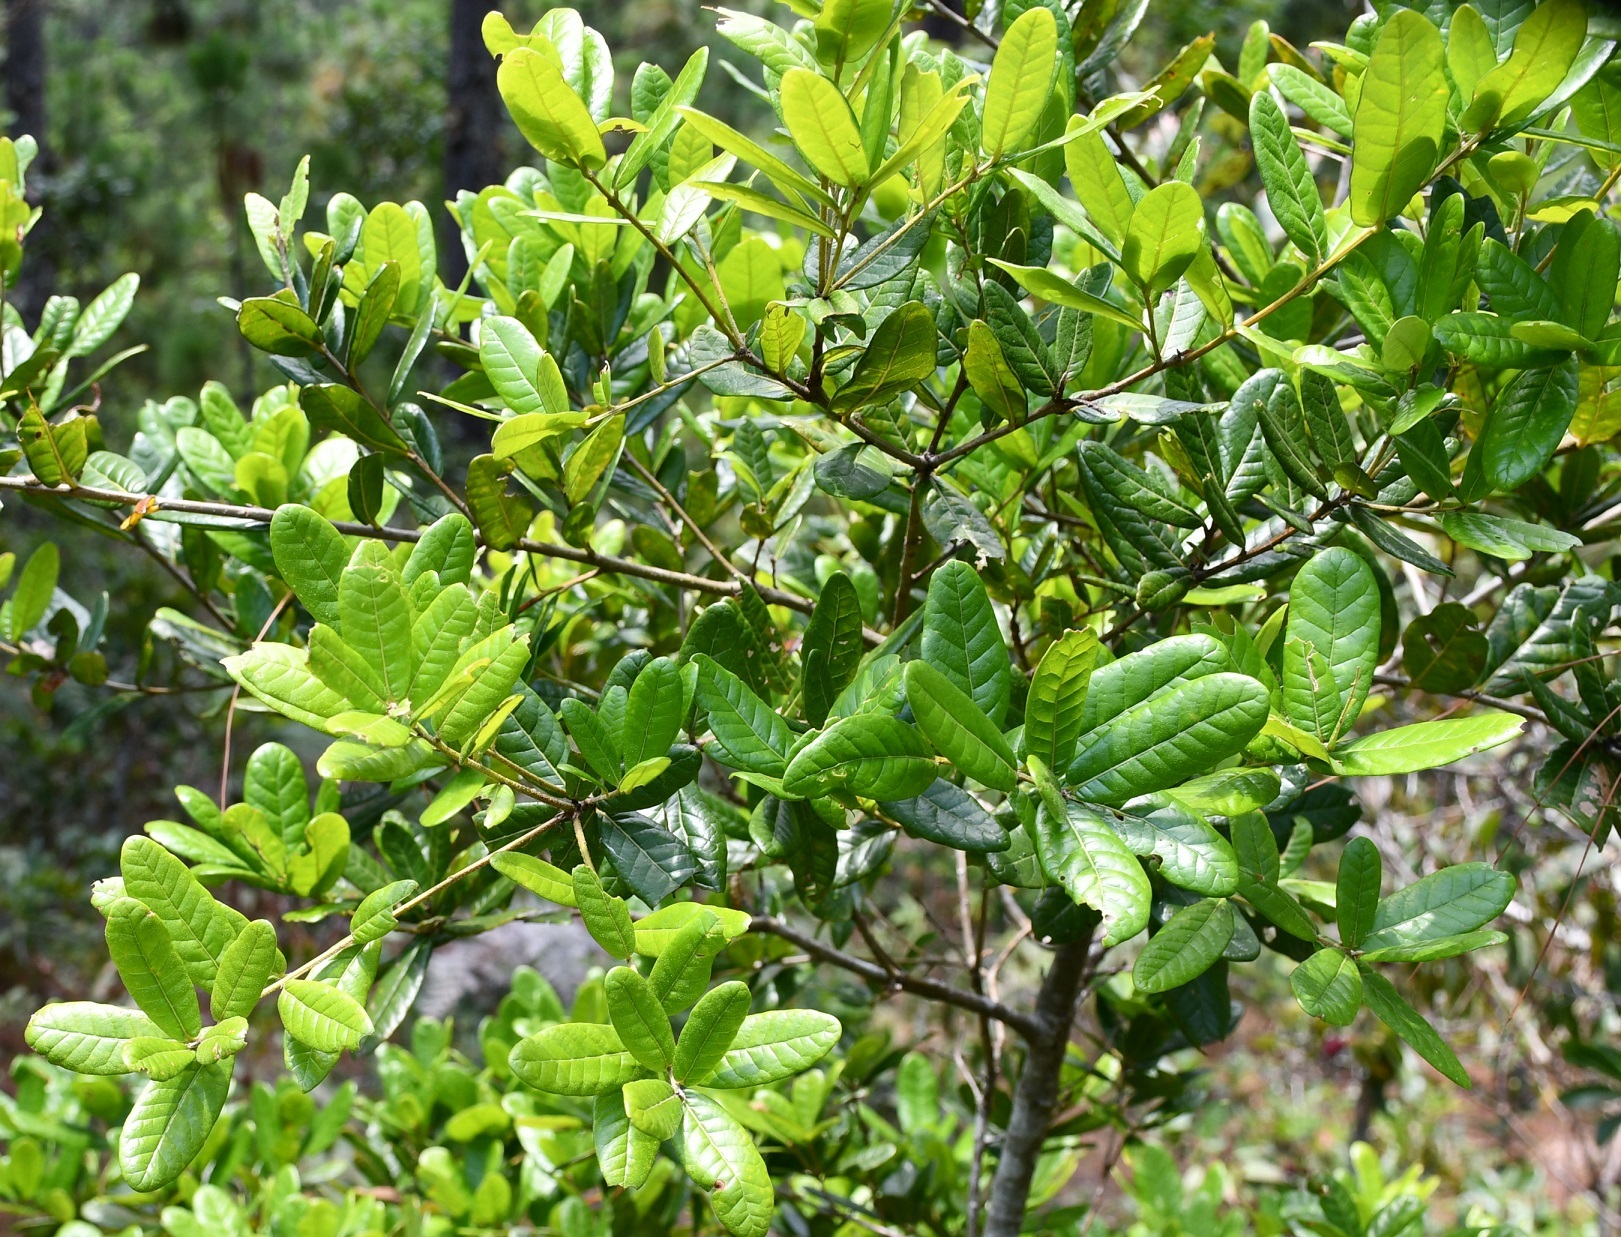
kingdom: Plantae
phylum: Tracheophyta
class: Magnoliopsida
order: Fagales
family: Fagaceae
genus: Quercus
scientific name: Quercus elliptica
